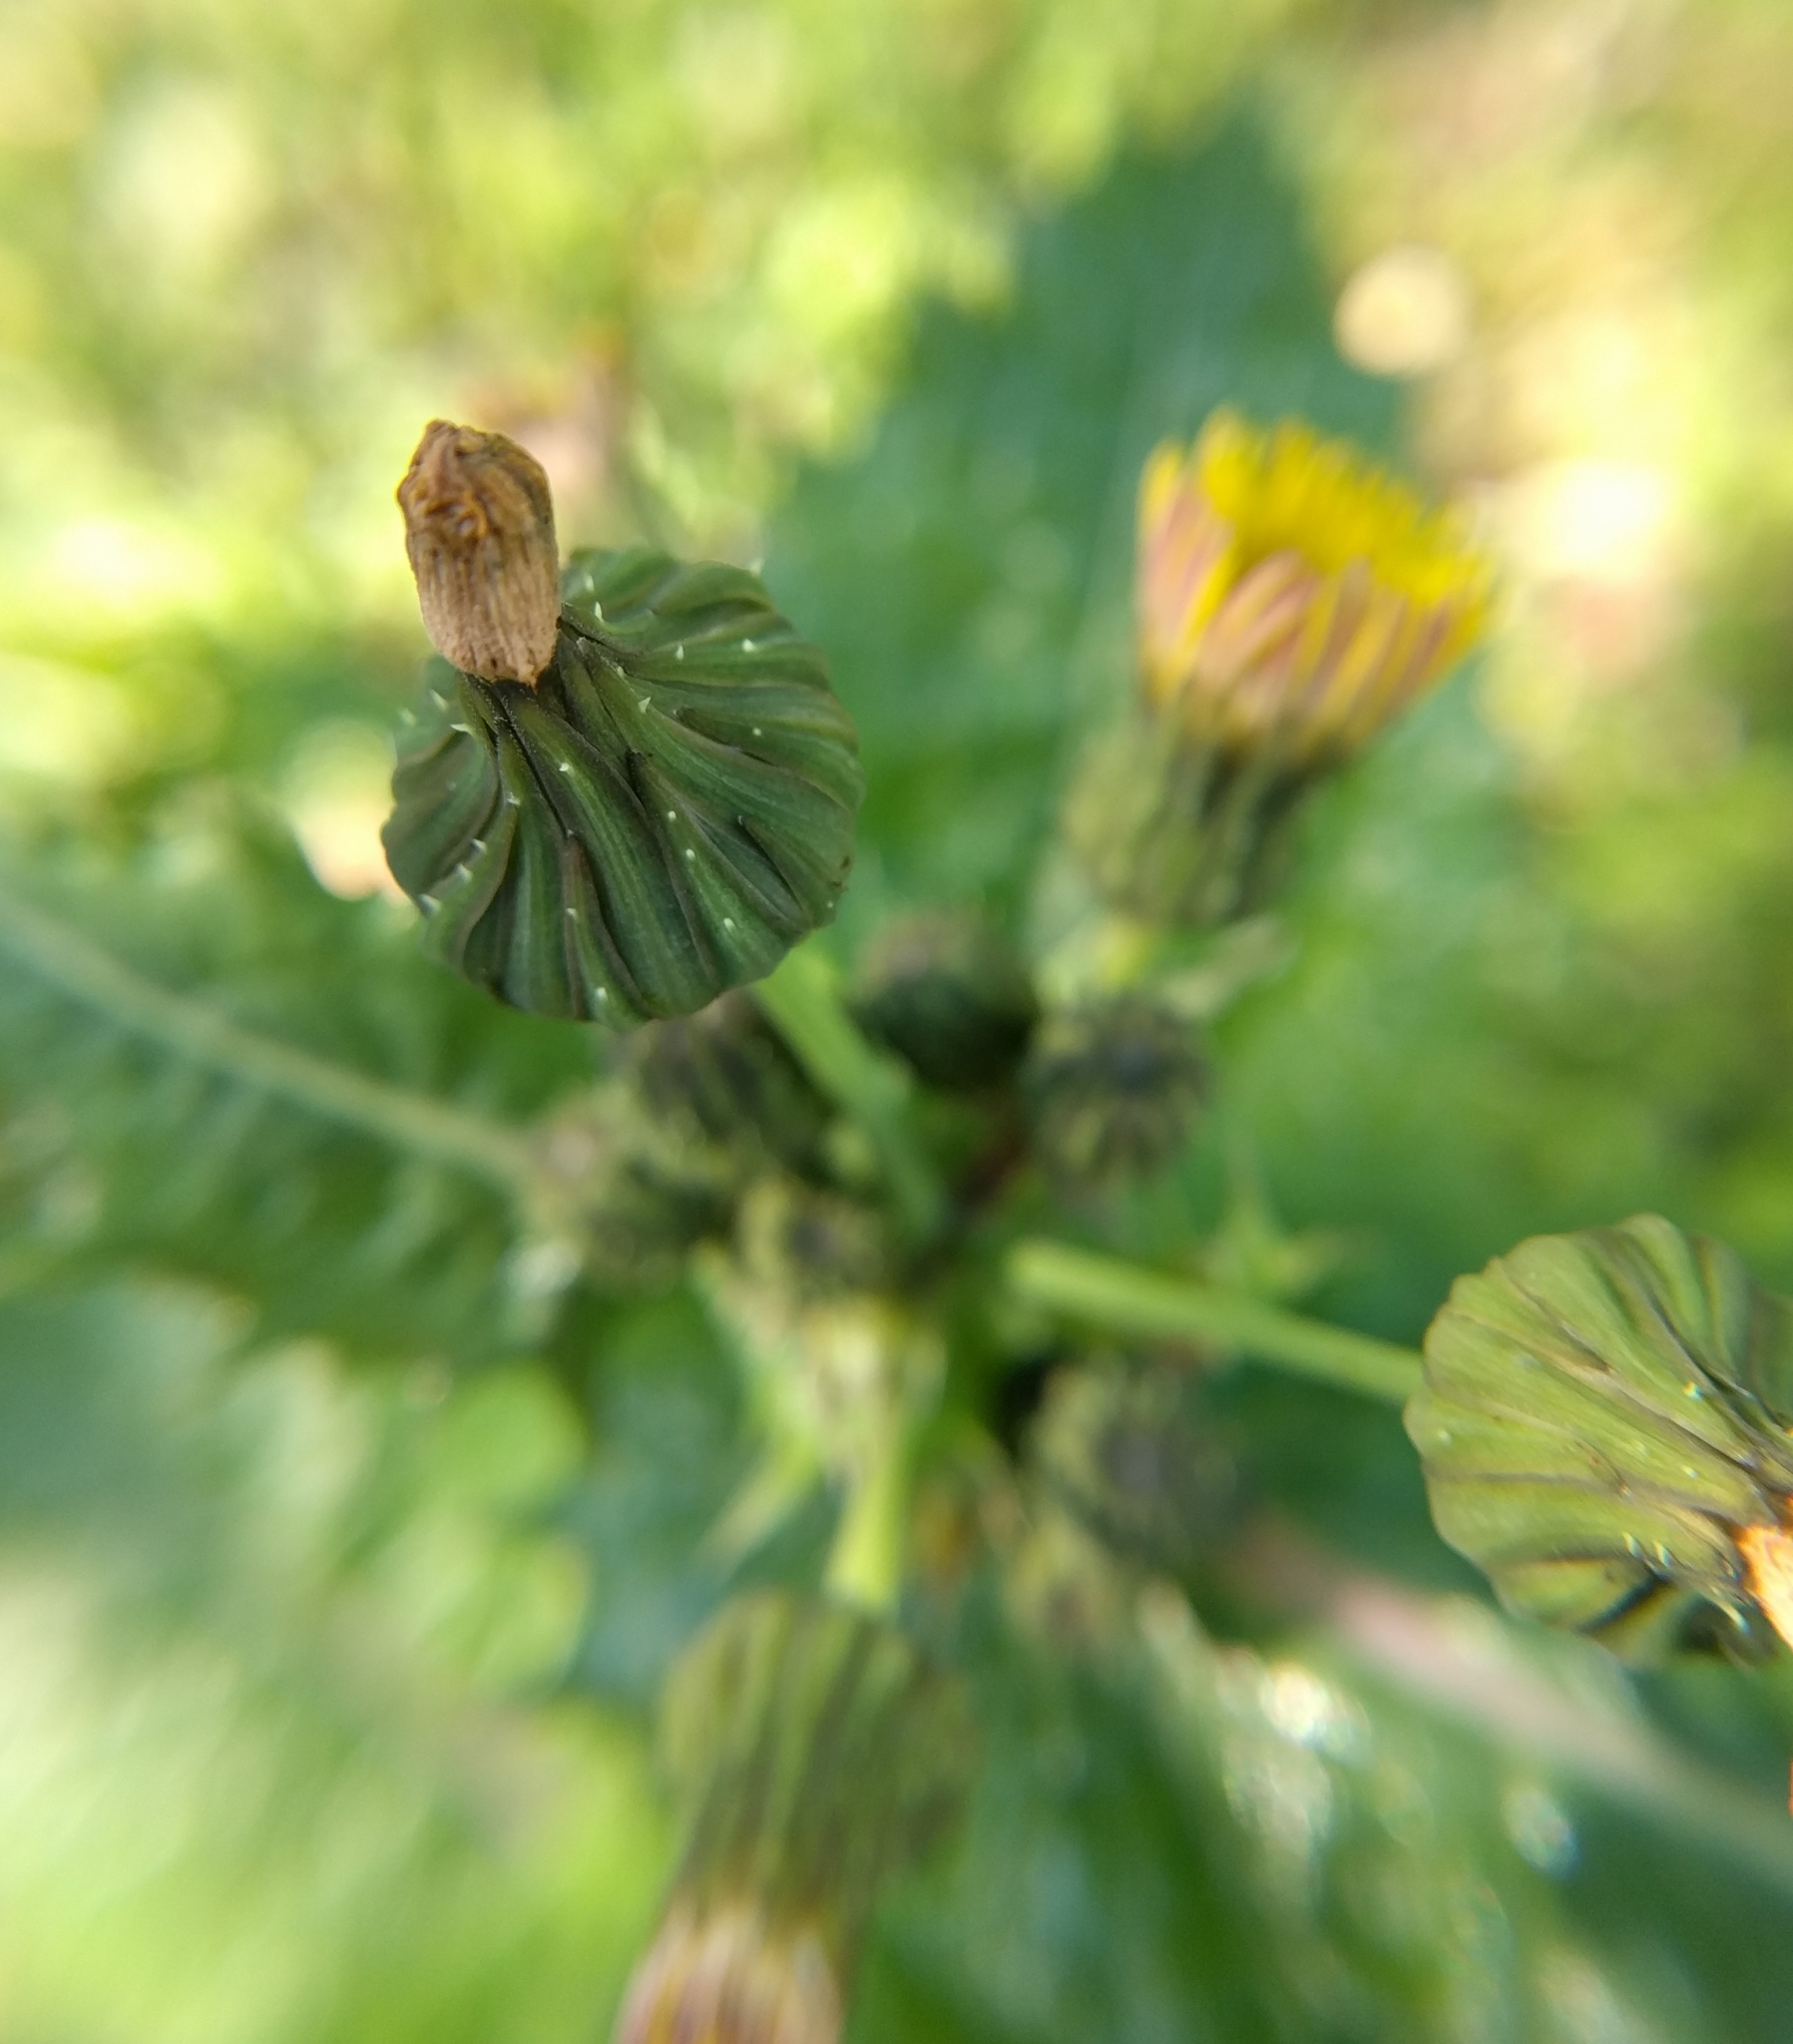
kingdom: Plantae
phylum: Tracheophyta
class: Magnoliopsida
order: Asterales
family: Asteraceae
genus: Sonchus
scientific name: Sonchus asper
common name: Prickly sow-thistle
